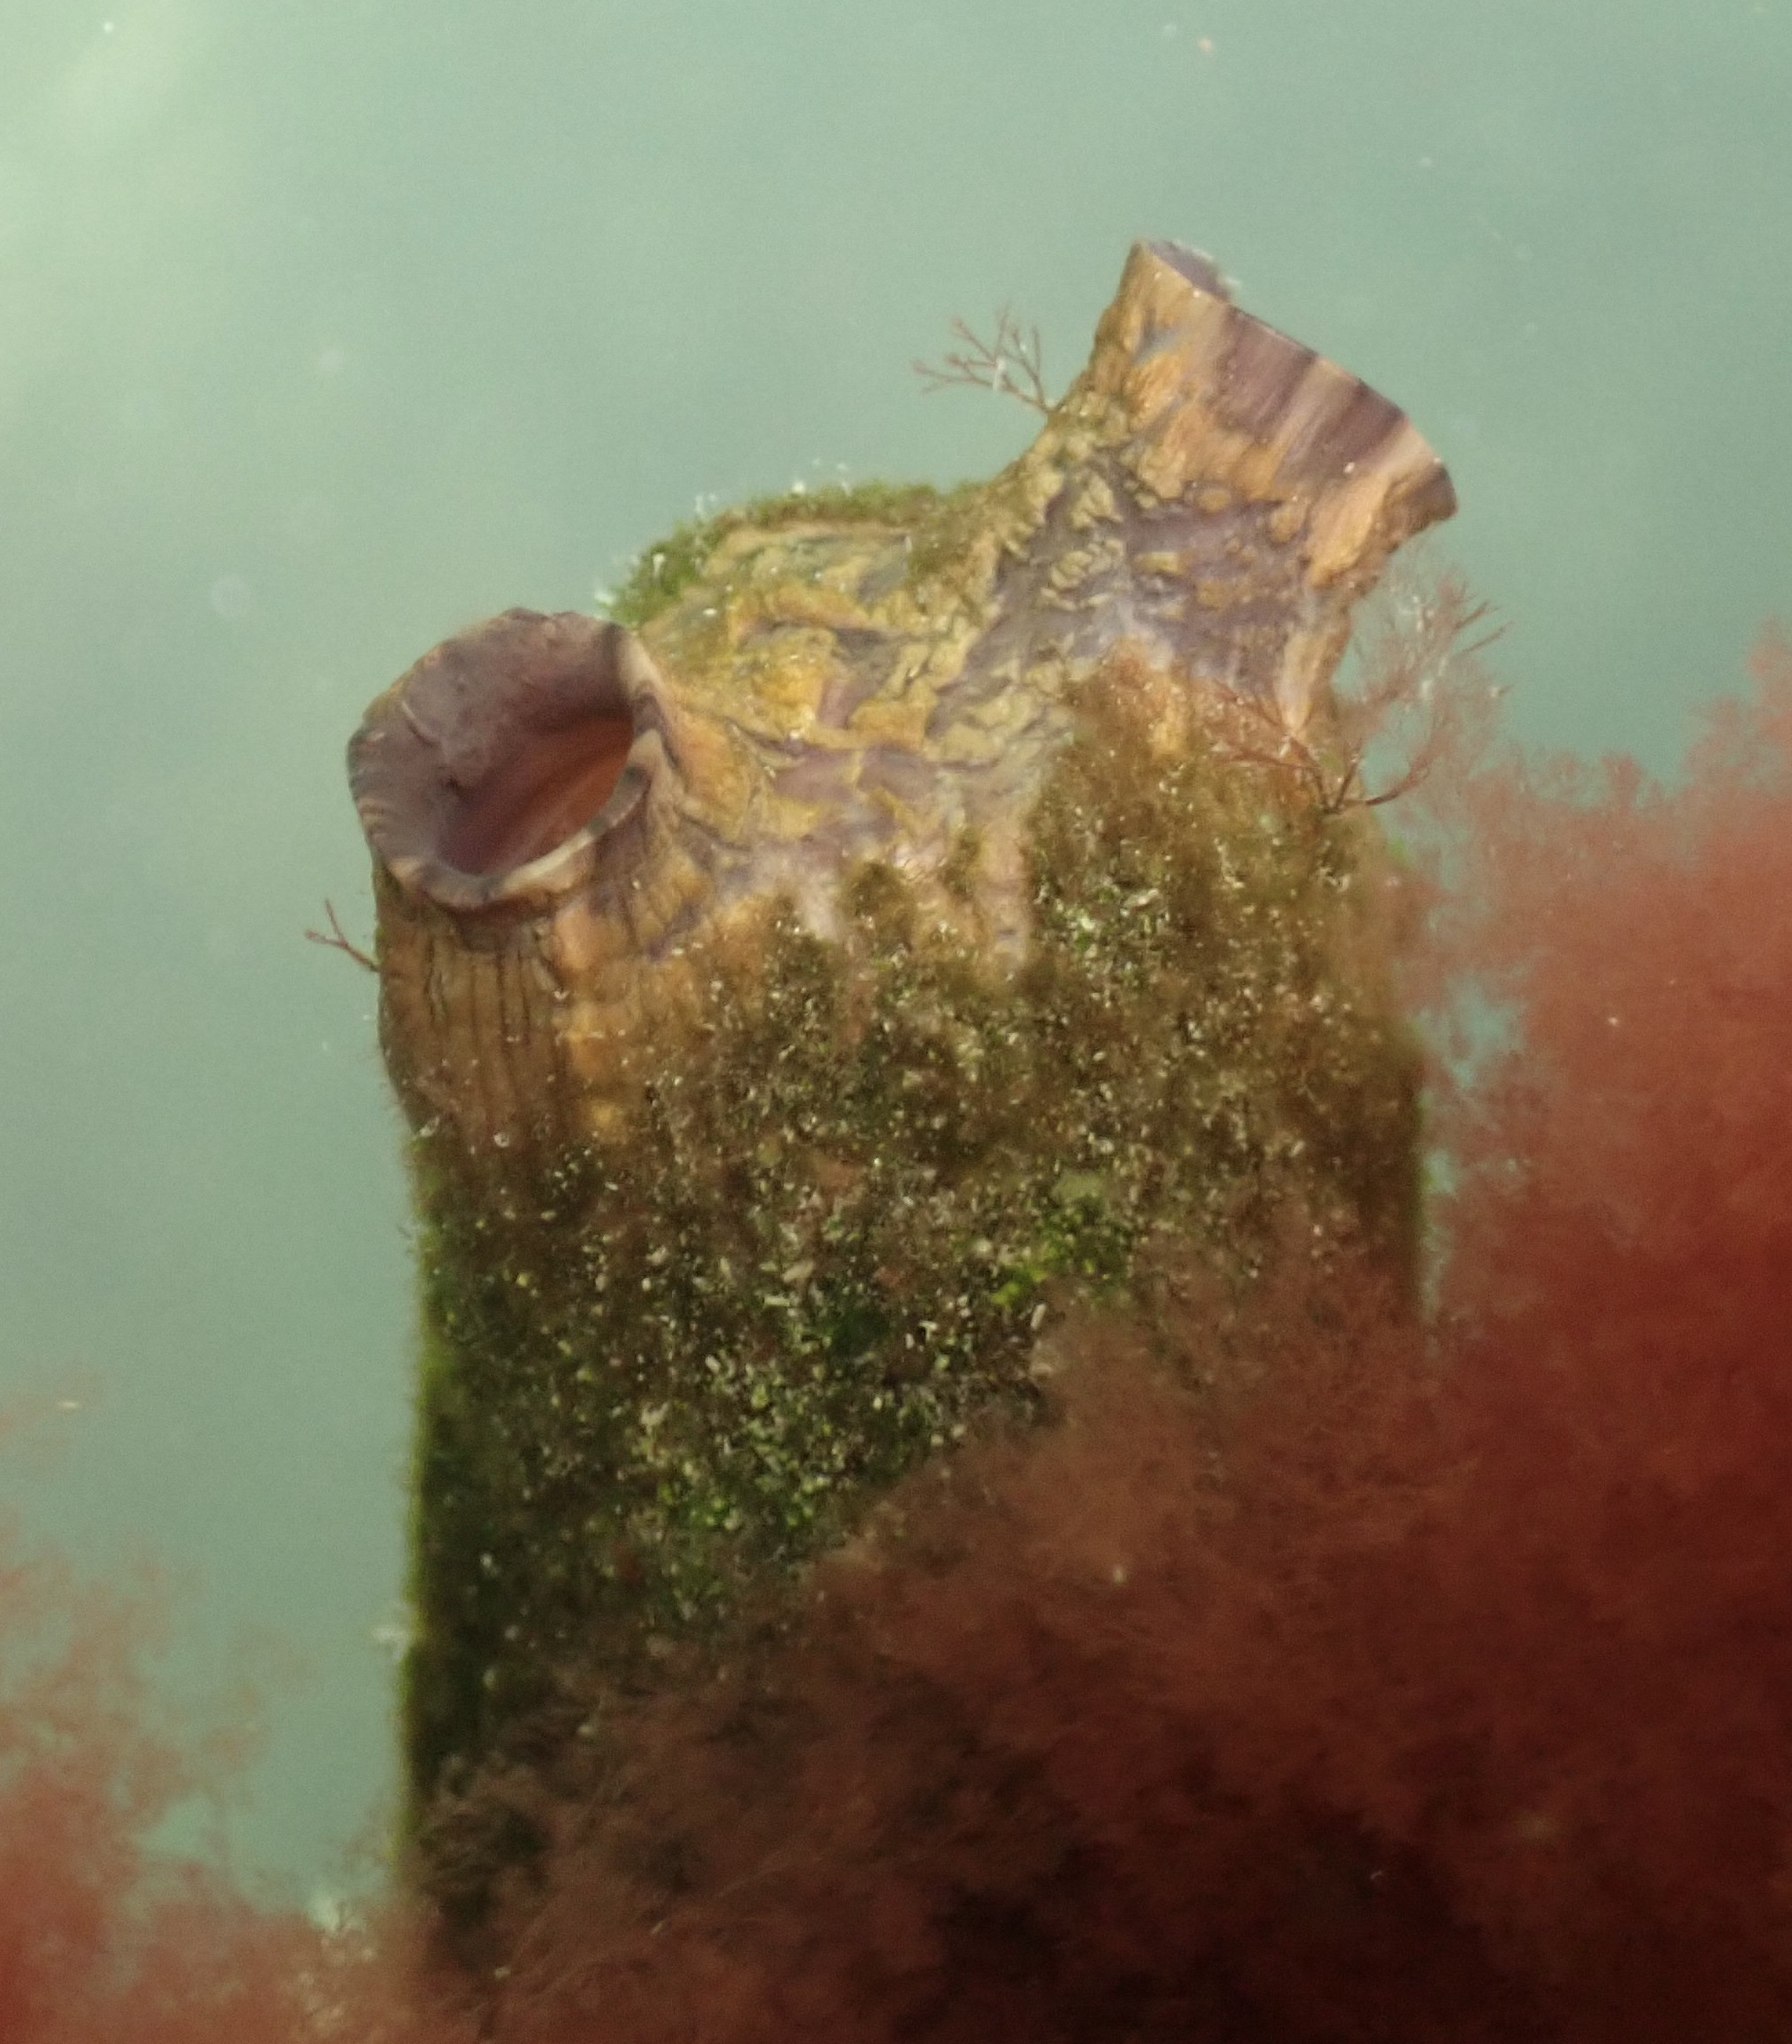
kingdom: Animalia
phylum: Chordata
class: Ascidiacea
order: Stolidobranchia
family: Styelidae
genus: Styela
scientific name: Styela clava
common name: Leathery sea squirt
